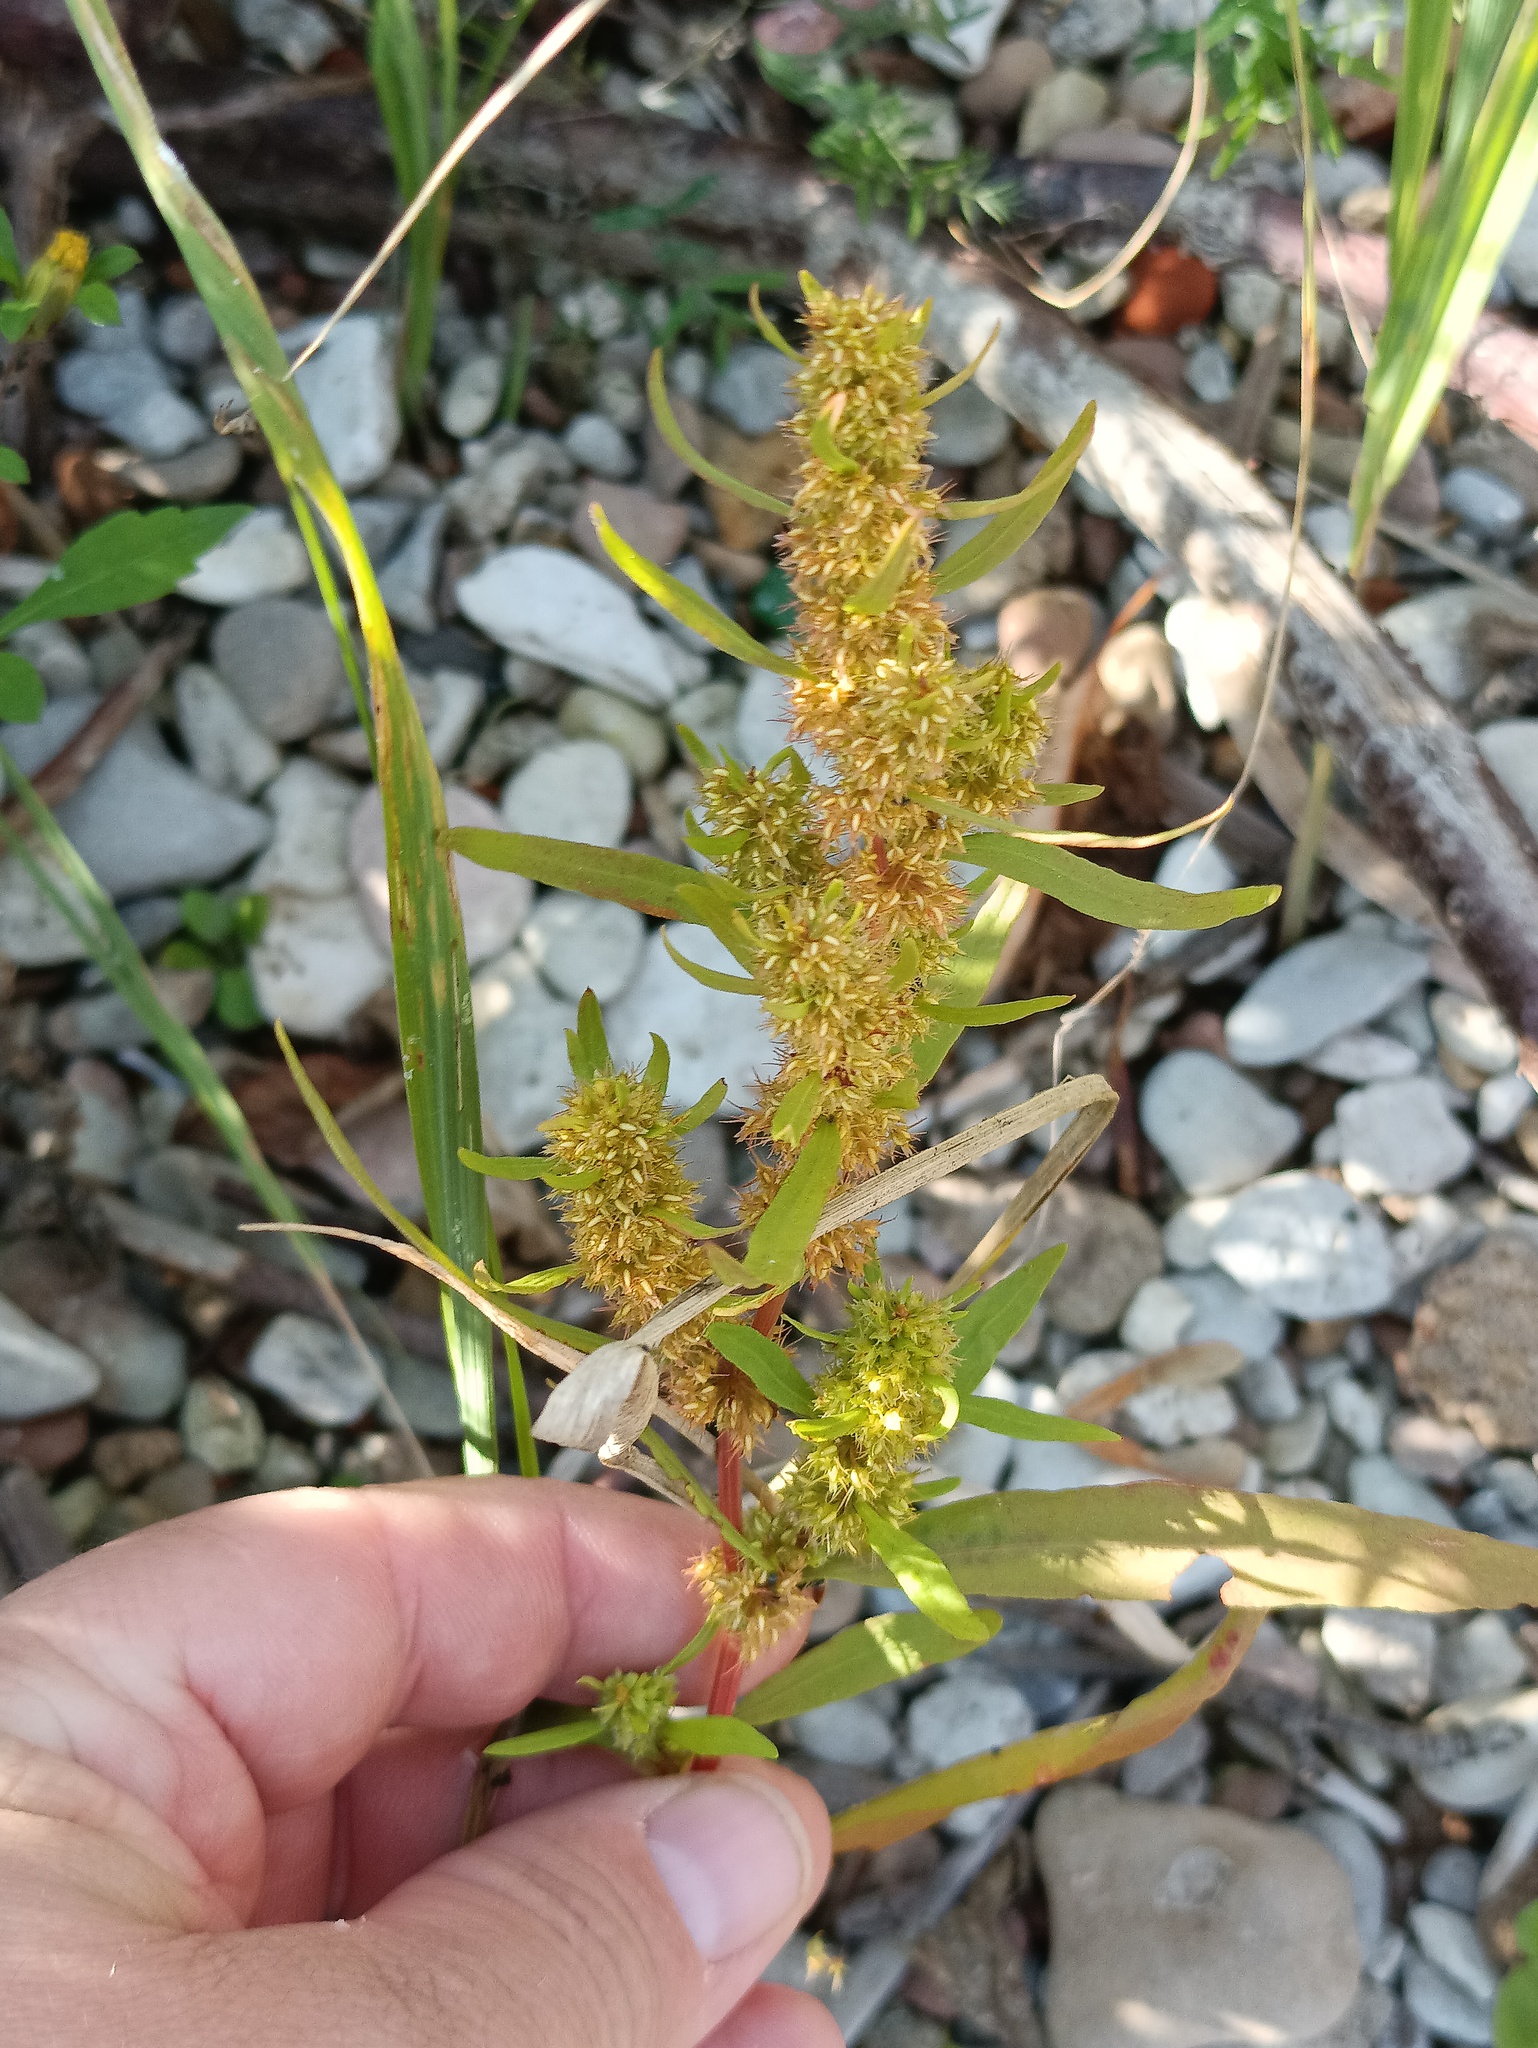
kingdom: Plantae
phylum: Tracheophyta
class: Magnoliopsida
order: Caryophyllales
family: Polygonaceae
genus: Rumex
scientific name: Rumex maritimus
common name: Golden dock
